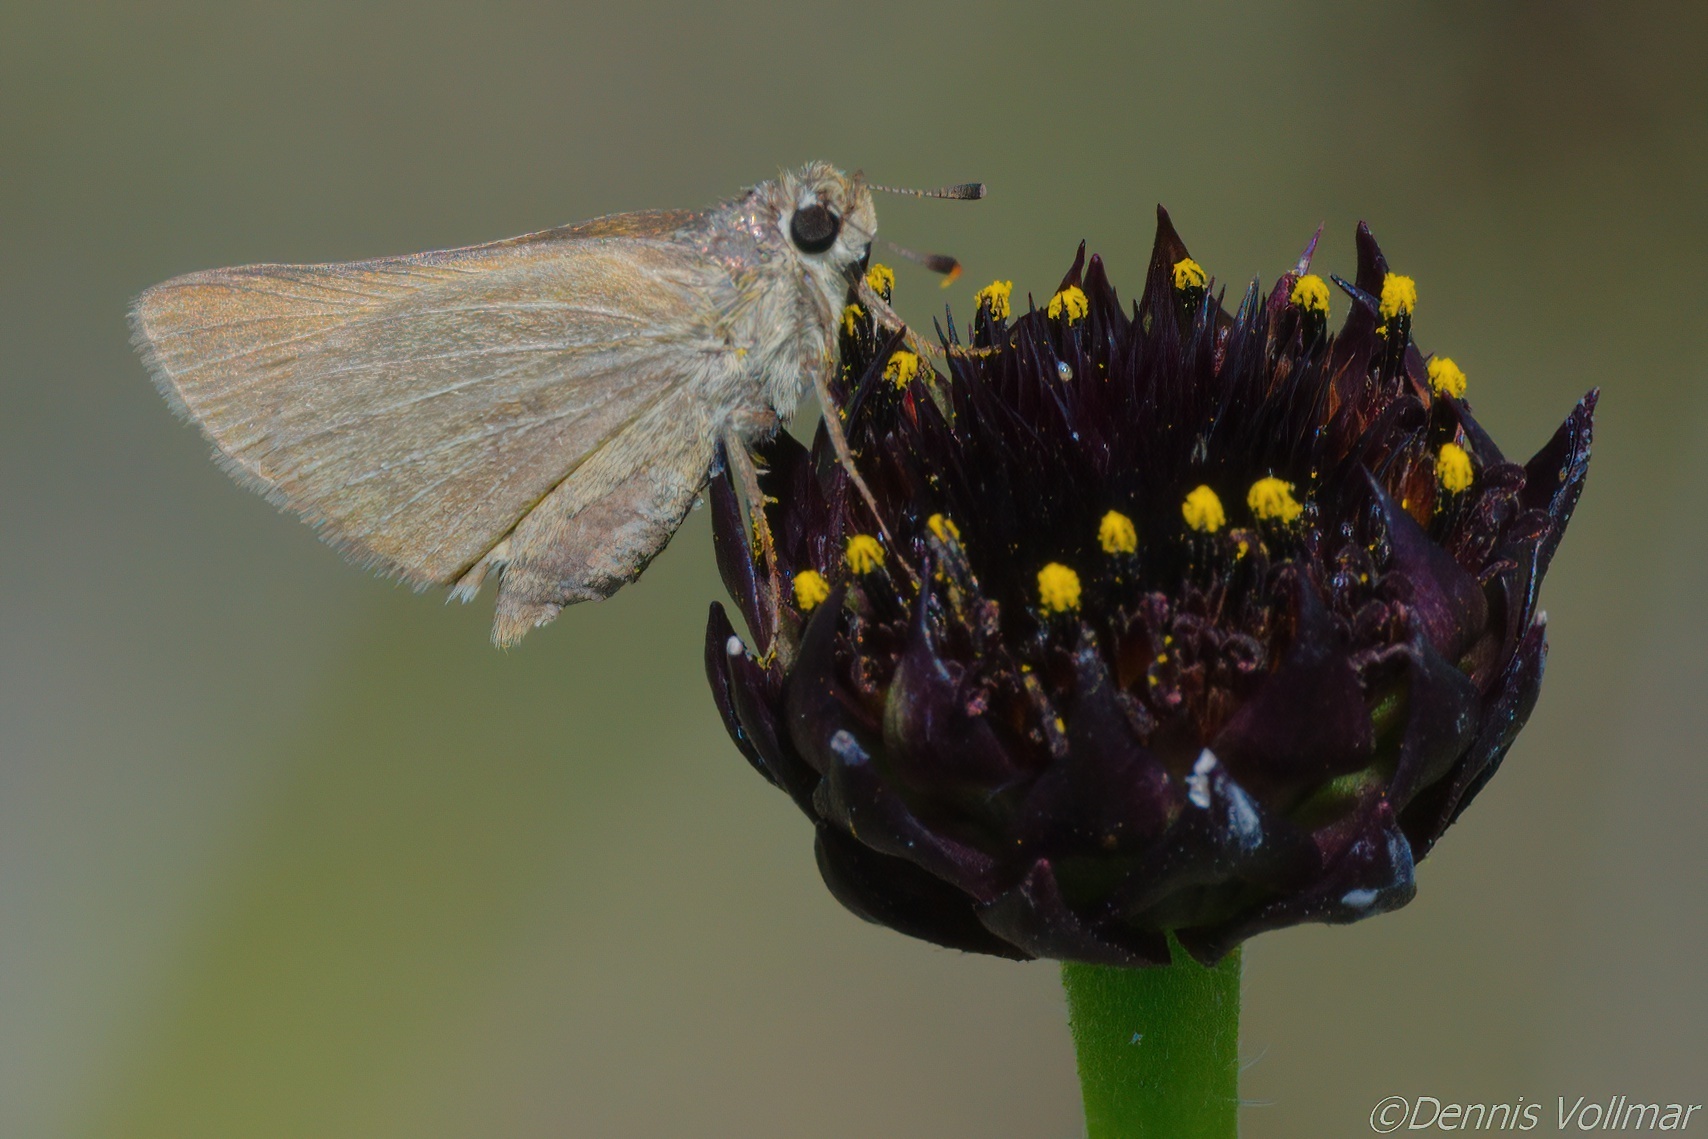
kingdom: Animalia
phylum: Arthropoda
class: Insecta
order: Lepidoptera
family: Hesperiidae
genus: Atrytone
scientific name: Atrytone arogos
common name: Arogos skipper
